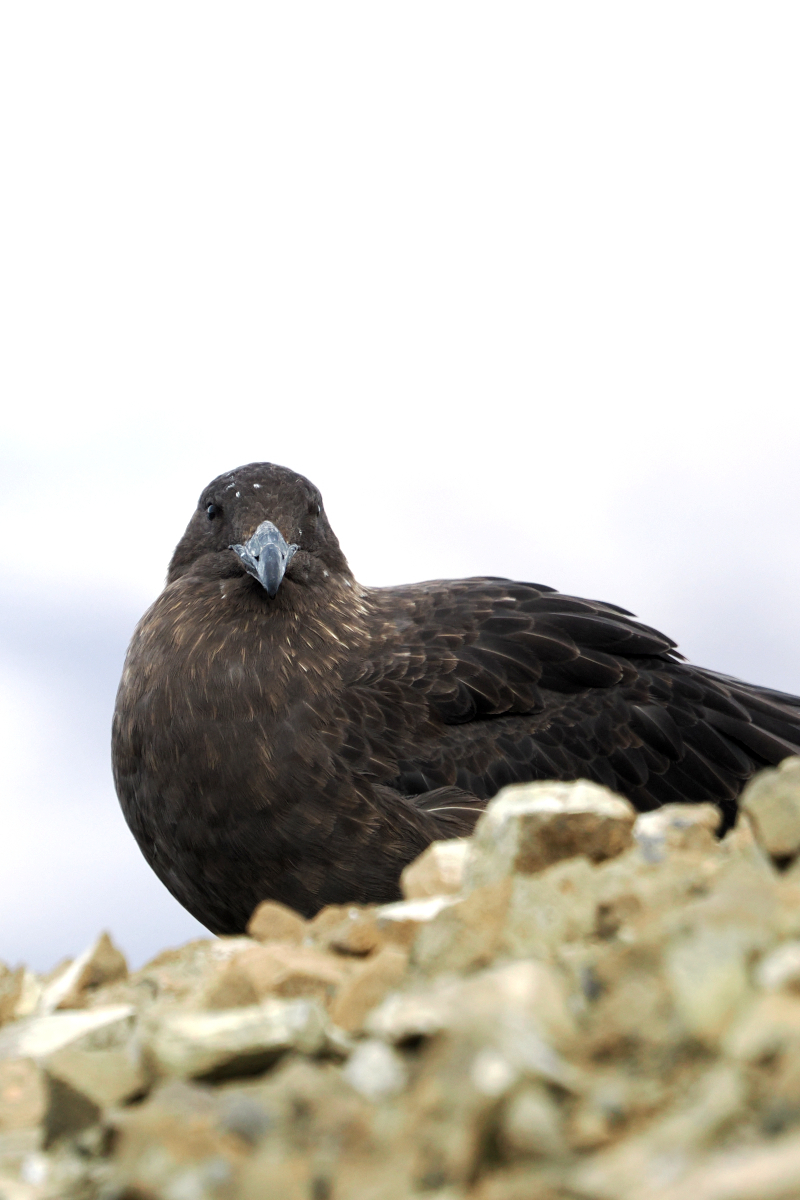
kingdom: Animalia
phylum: Chordata
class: Aves
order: Charadriiformes
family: Stercorariidae
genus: Stercorarius
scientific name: Stercorarius maccormicki
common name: South polar skua
